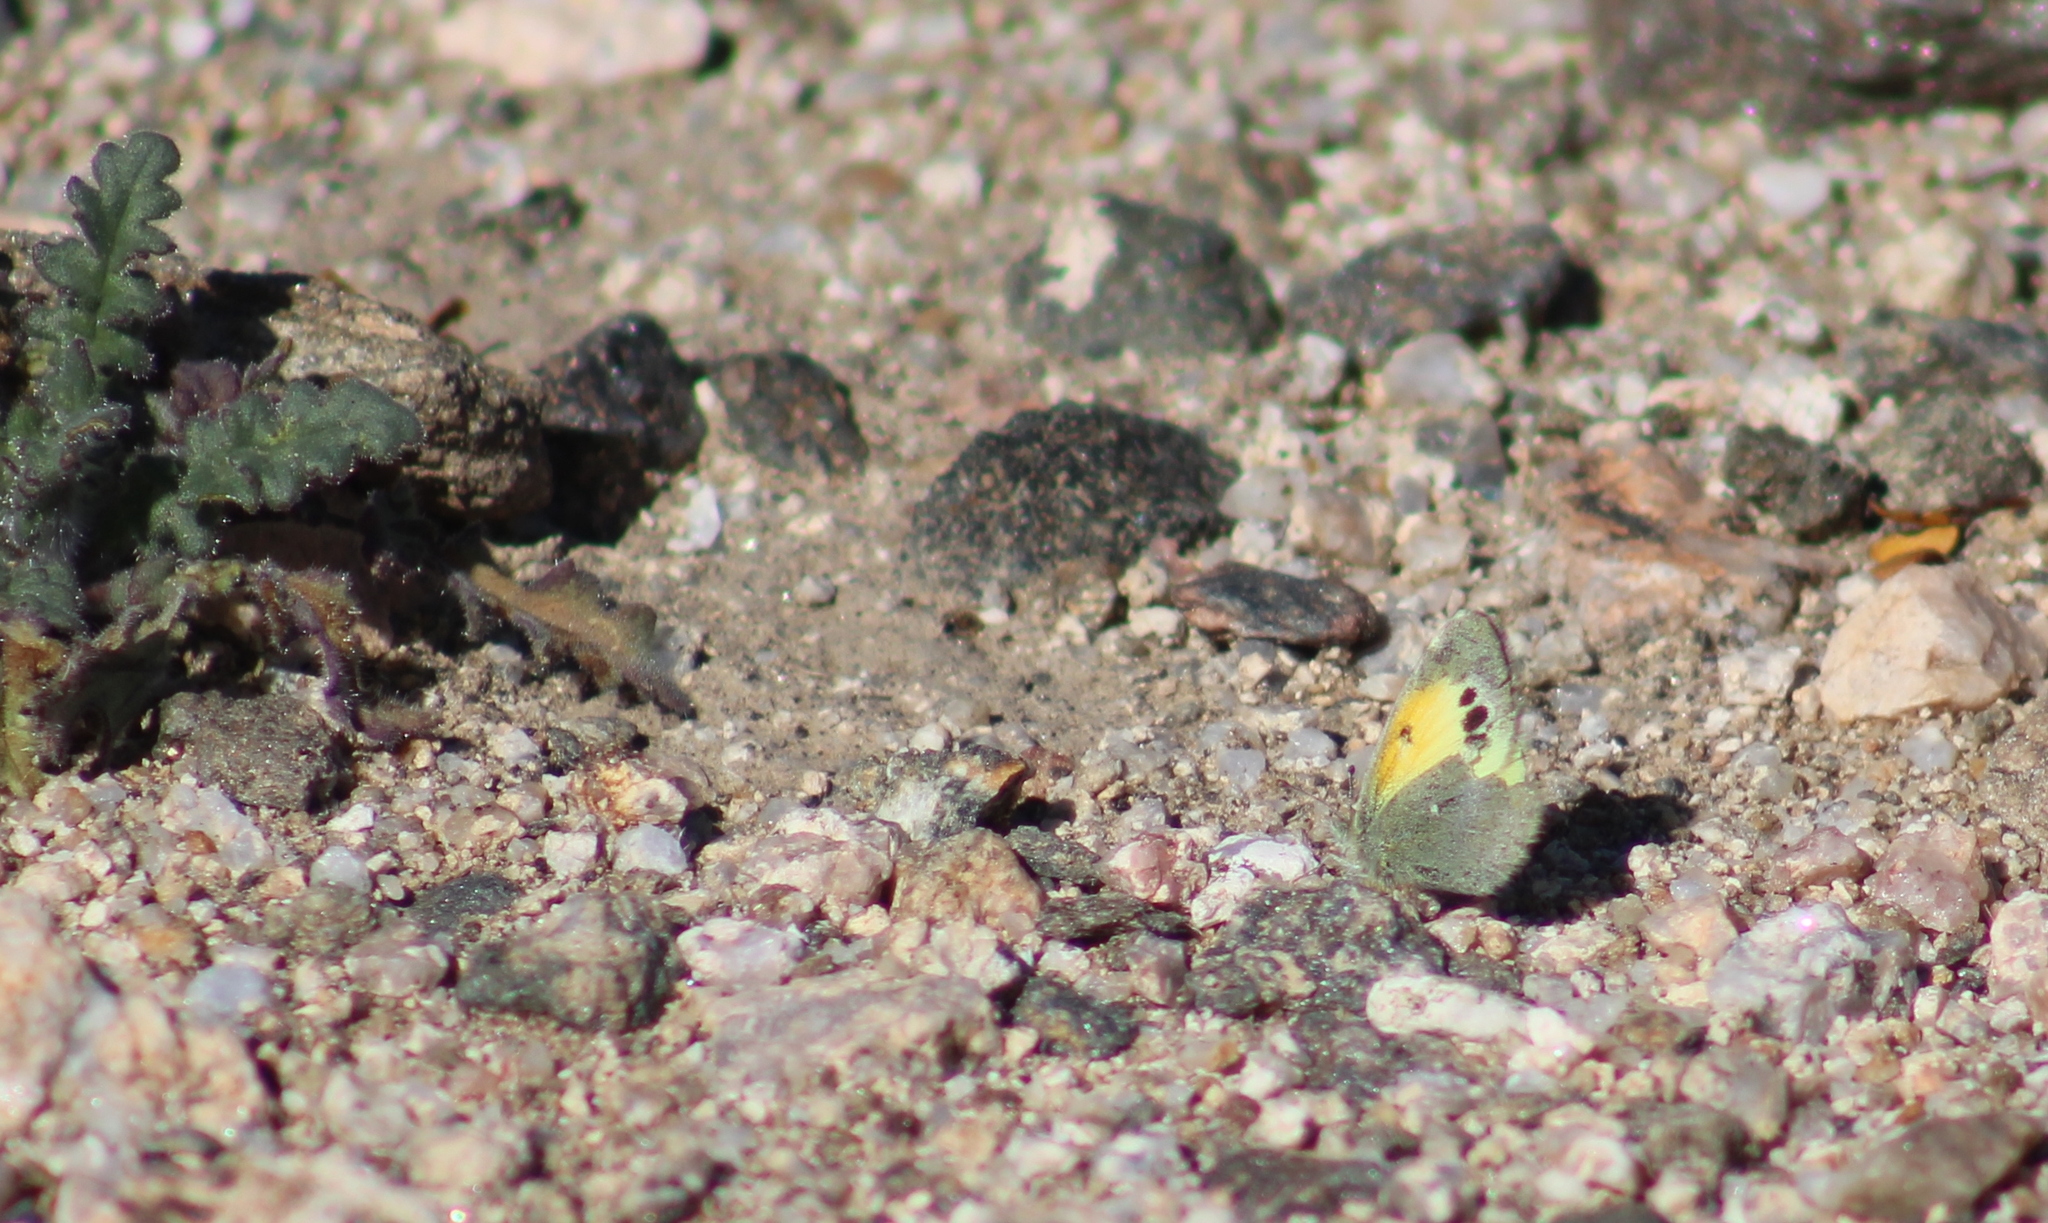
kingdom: Animalia
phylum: Arthropoda
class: Insecta
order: Lepidoptera
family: Pieridae
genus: Nathalis
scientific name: Nathalis iole
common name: Dainty sulphur
